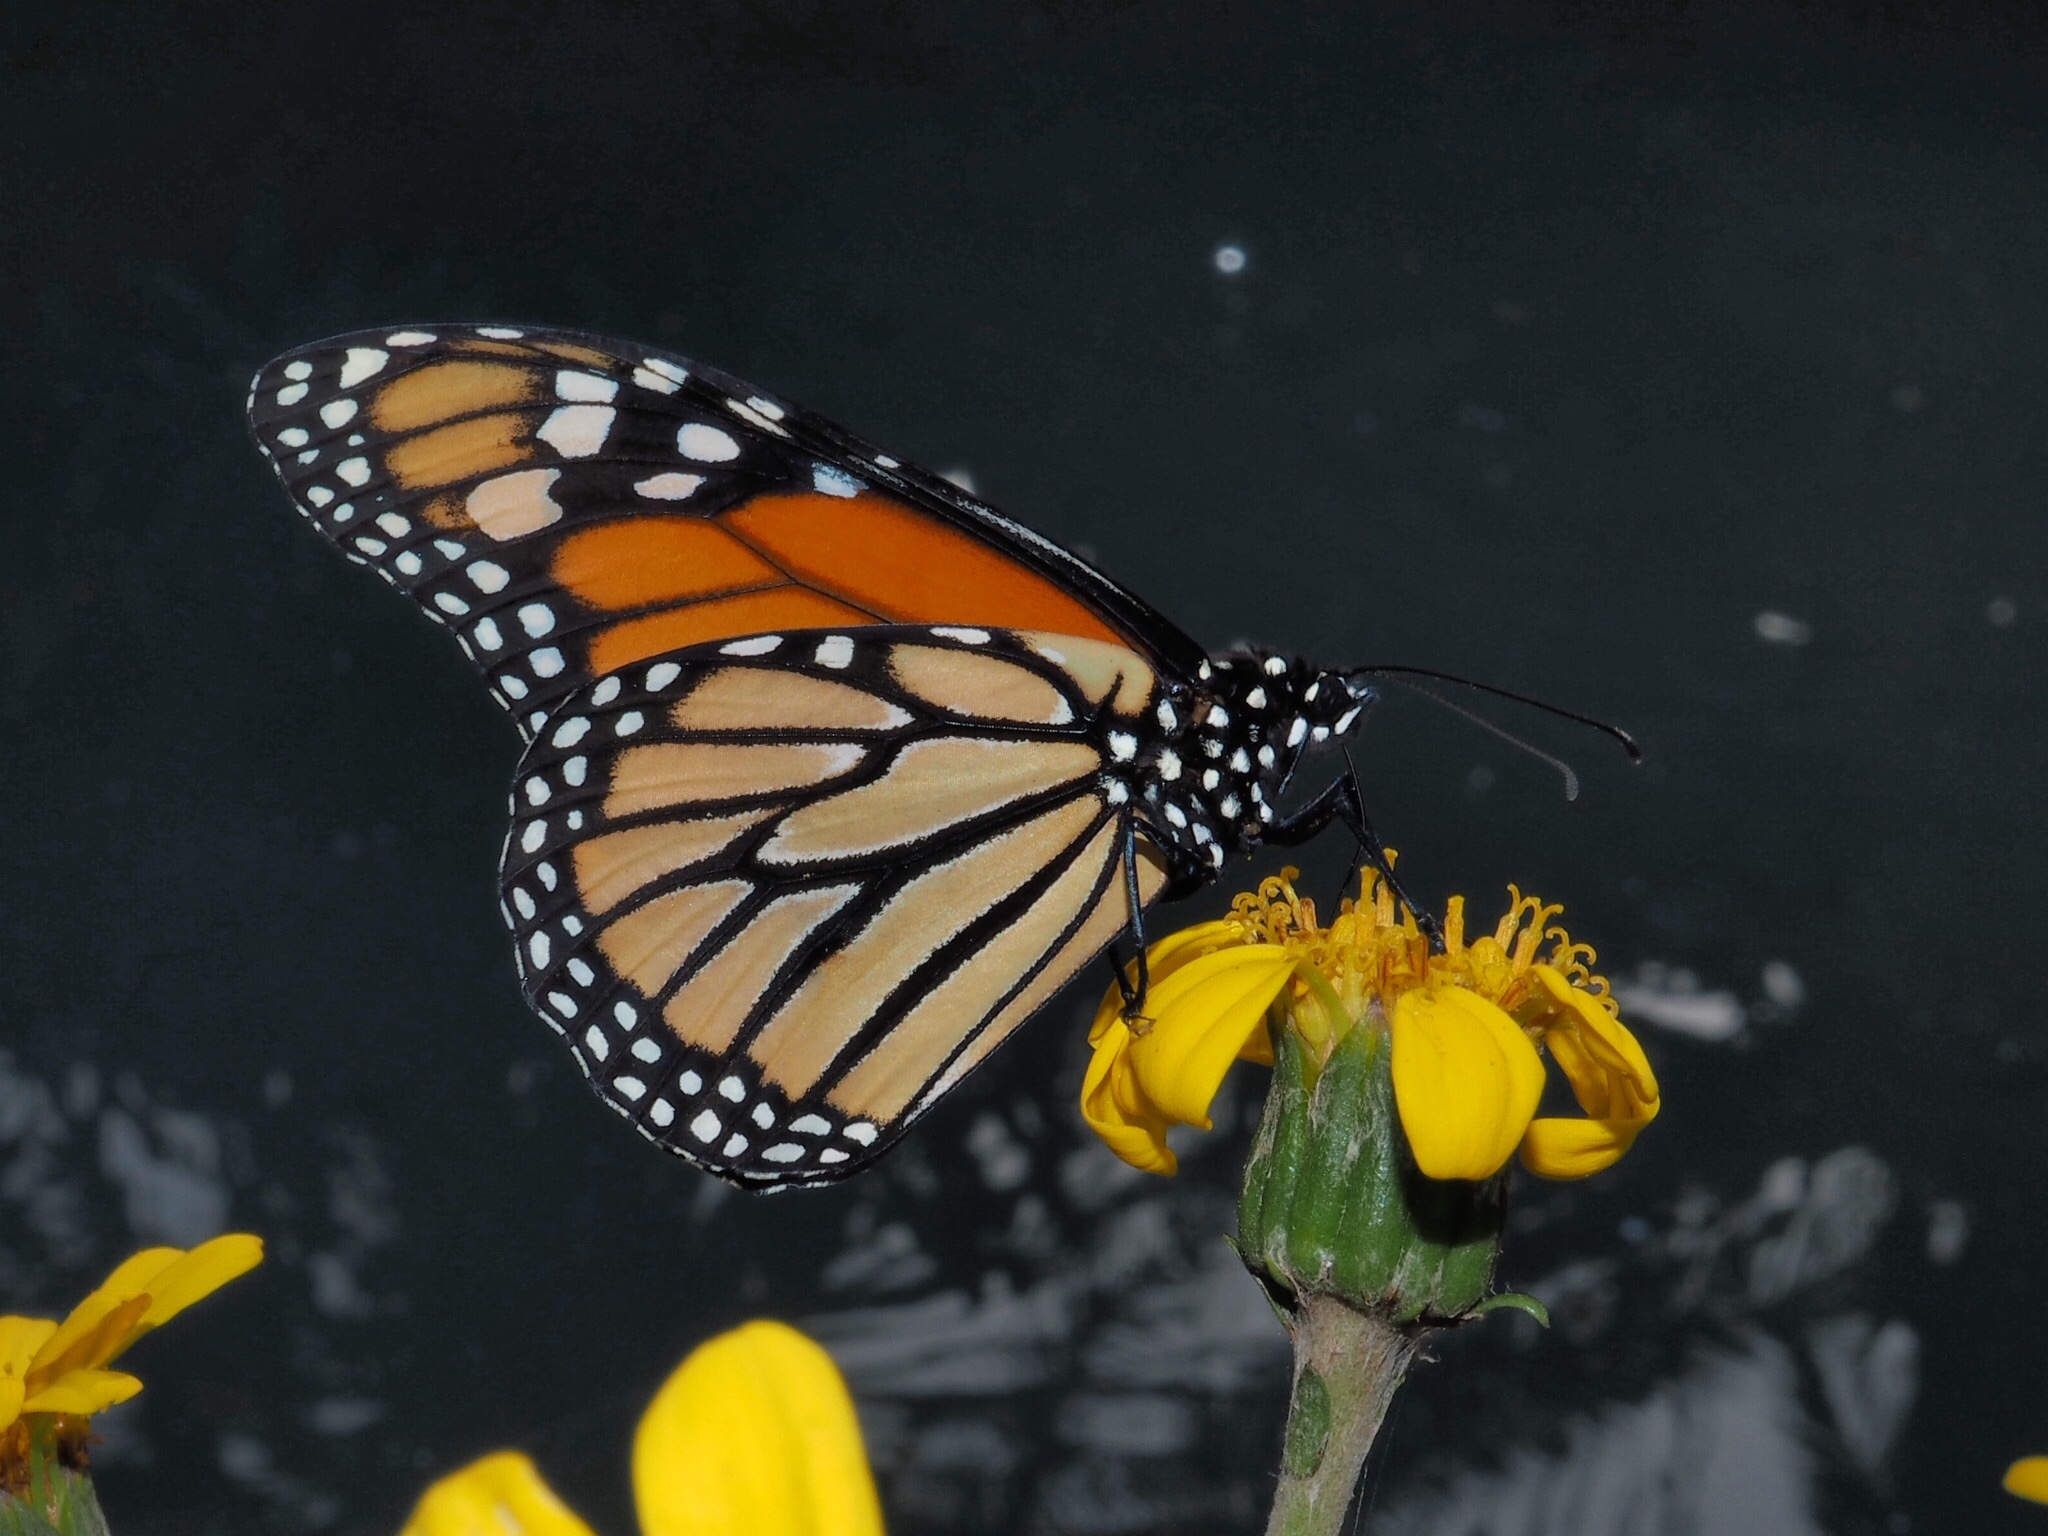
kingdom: Animalia
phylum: Arthropoda
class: Insecta
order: Lepidoptera
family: Nymphalidae
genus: Danaus
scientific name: Danaus plexippus
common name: Monarch
